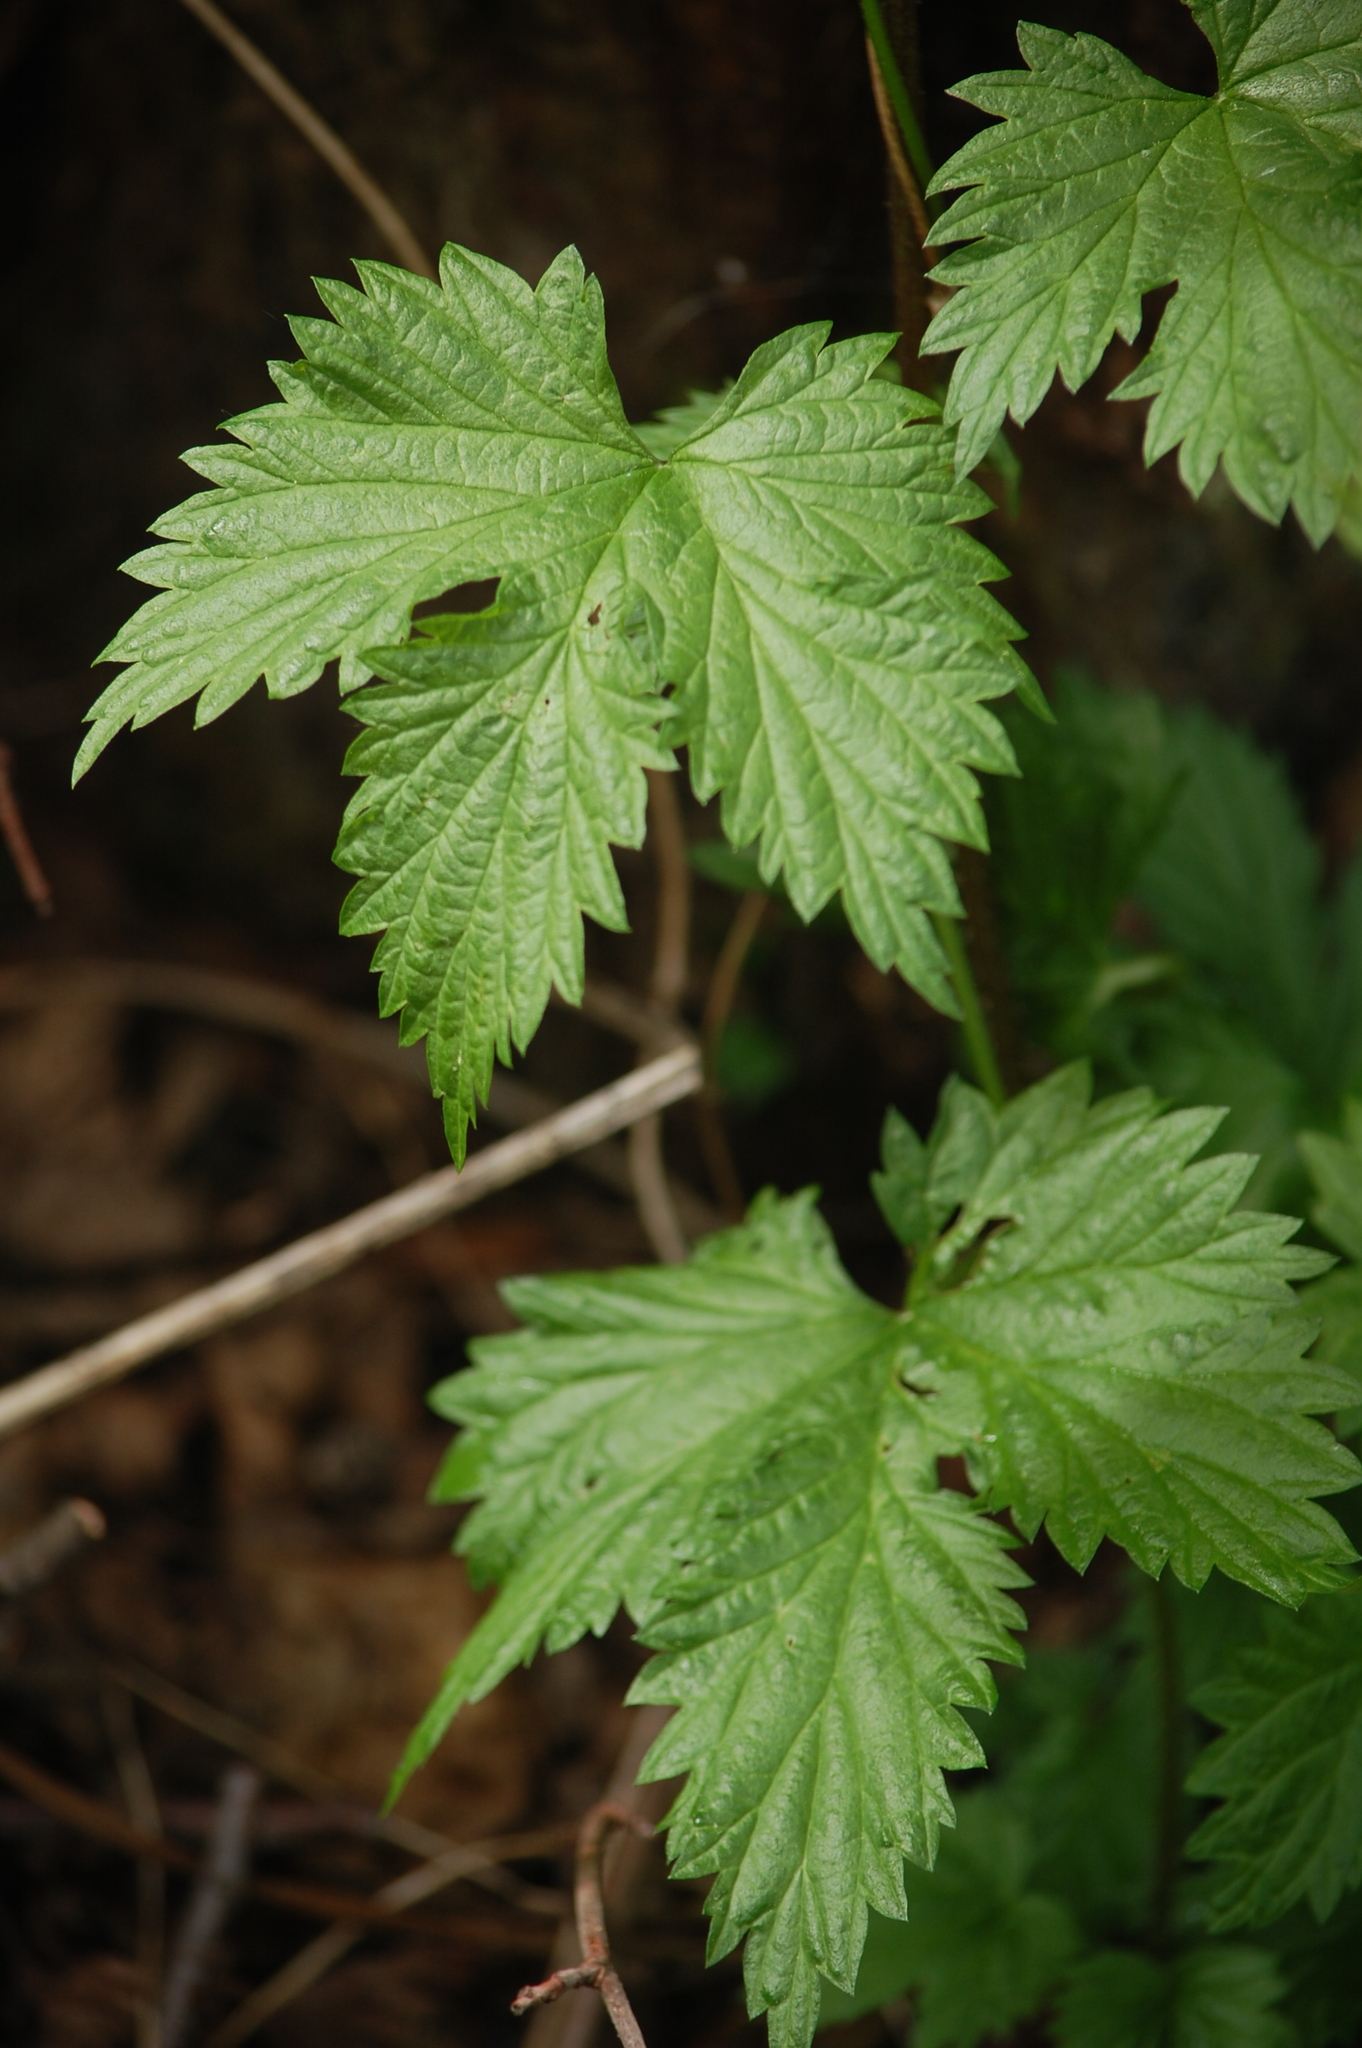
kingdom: Plantae
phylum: Tracheophyta
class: Magnoliopsida
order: Rosales
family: Cannabaceae
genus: Humulus
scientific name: Humulus lupulus
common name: Hop
